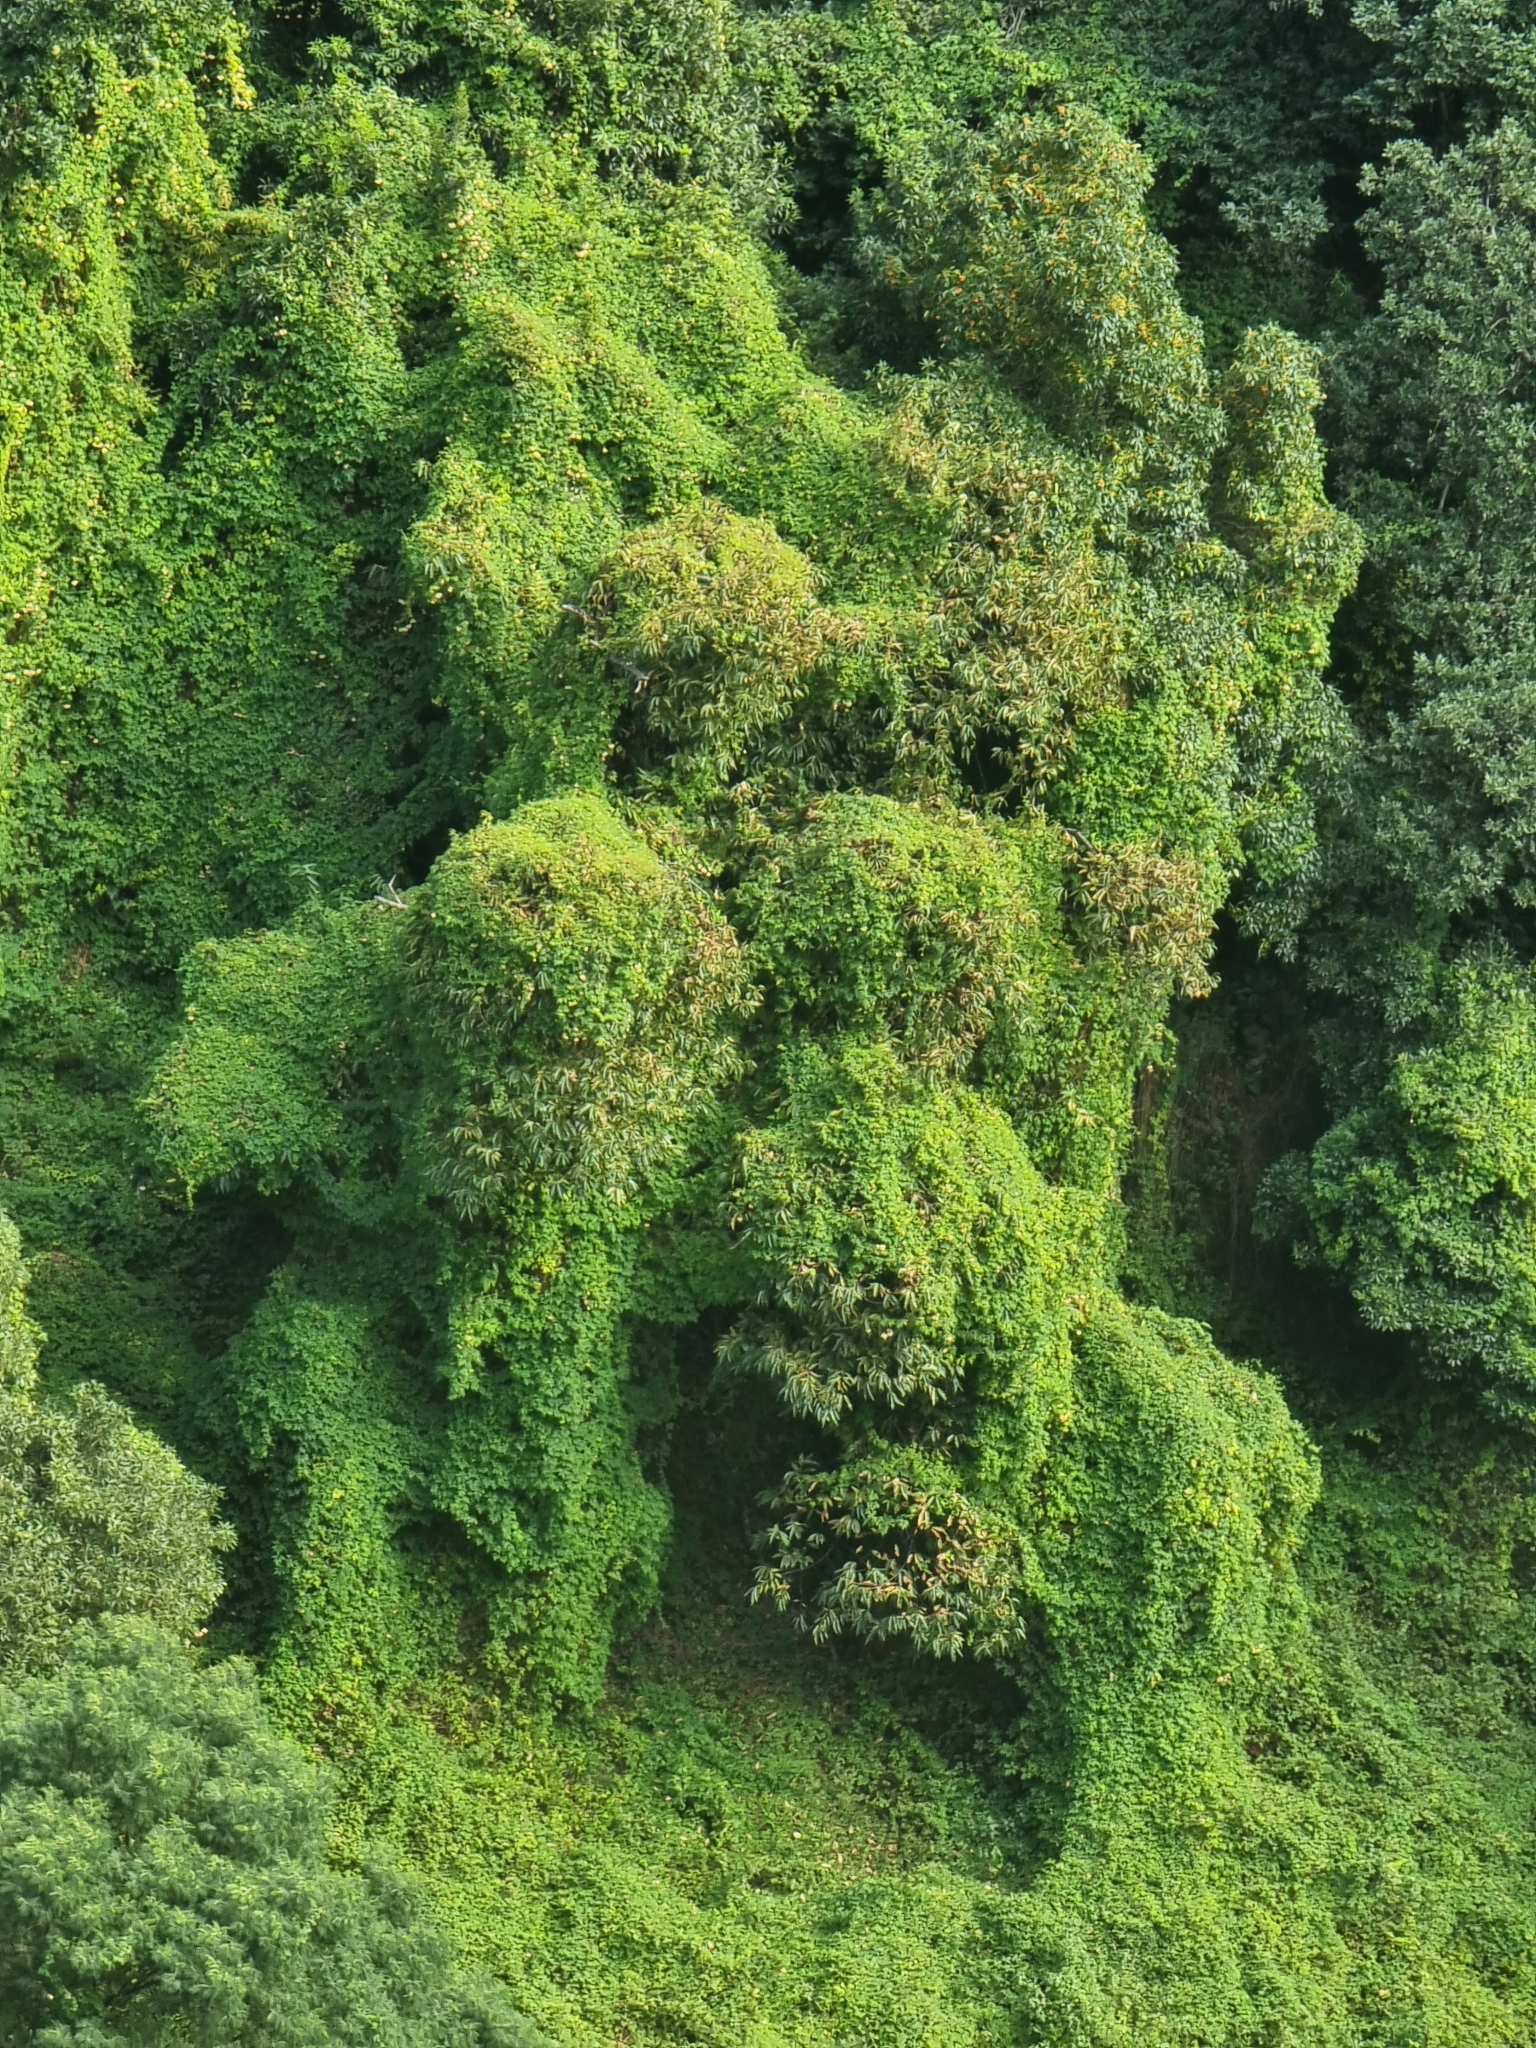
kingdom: Plantae
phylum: Tracheophyta
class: Magnoliopsida
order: Sapindales
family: Sapindaceae
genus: Cardiospermum
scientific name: Cardiospermum grandiflorum
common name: Balloon vine
